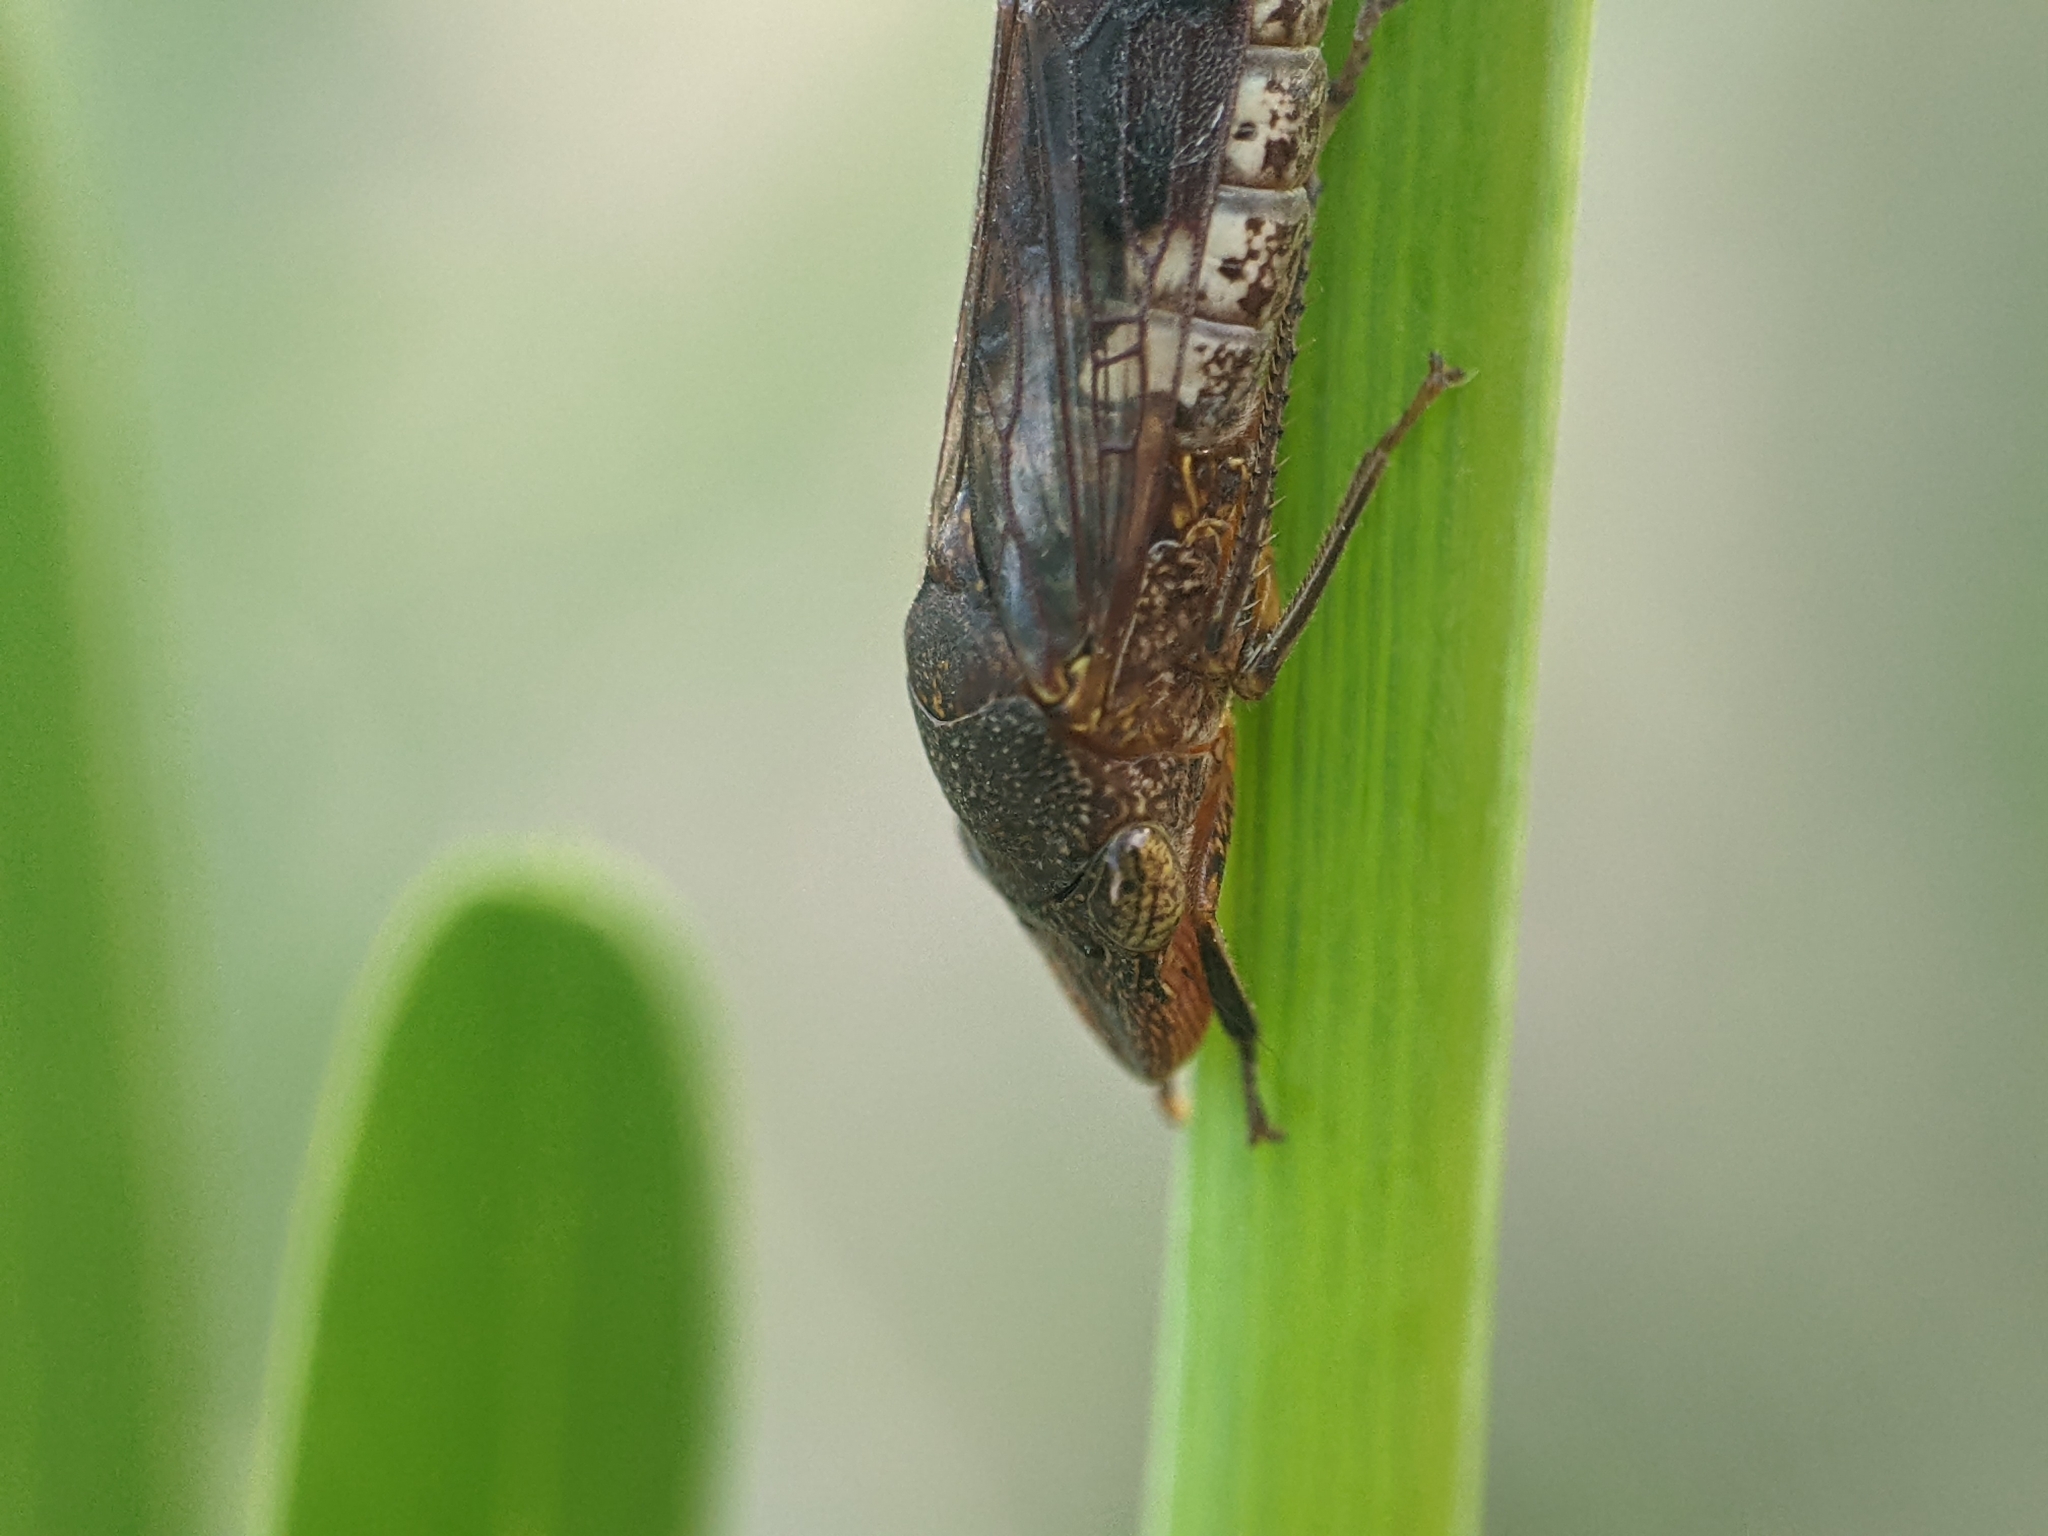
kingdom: Animalia
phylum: Arthropoda
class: Insecta
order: Hemiptera
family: Cicadellidae
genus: Homalodisca
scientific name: Homalodisca vitripennis
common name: Glassy-winged sharpshooter
